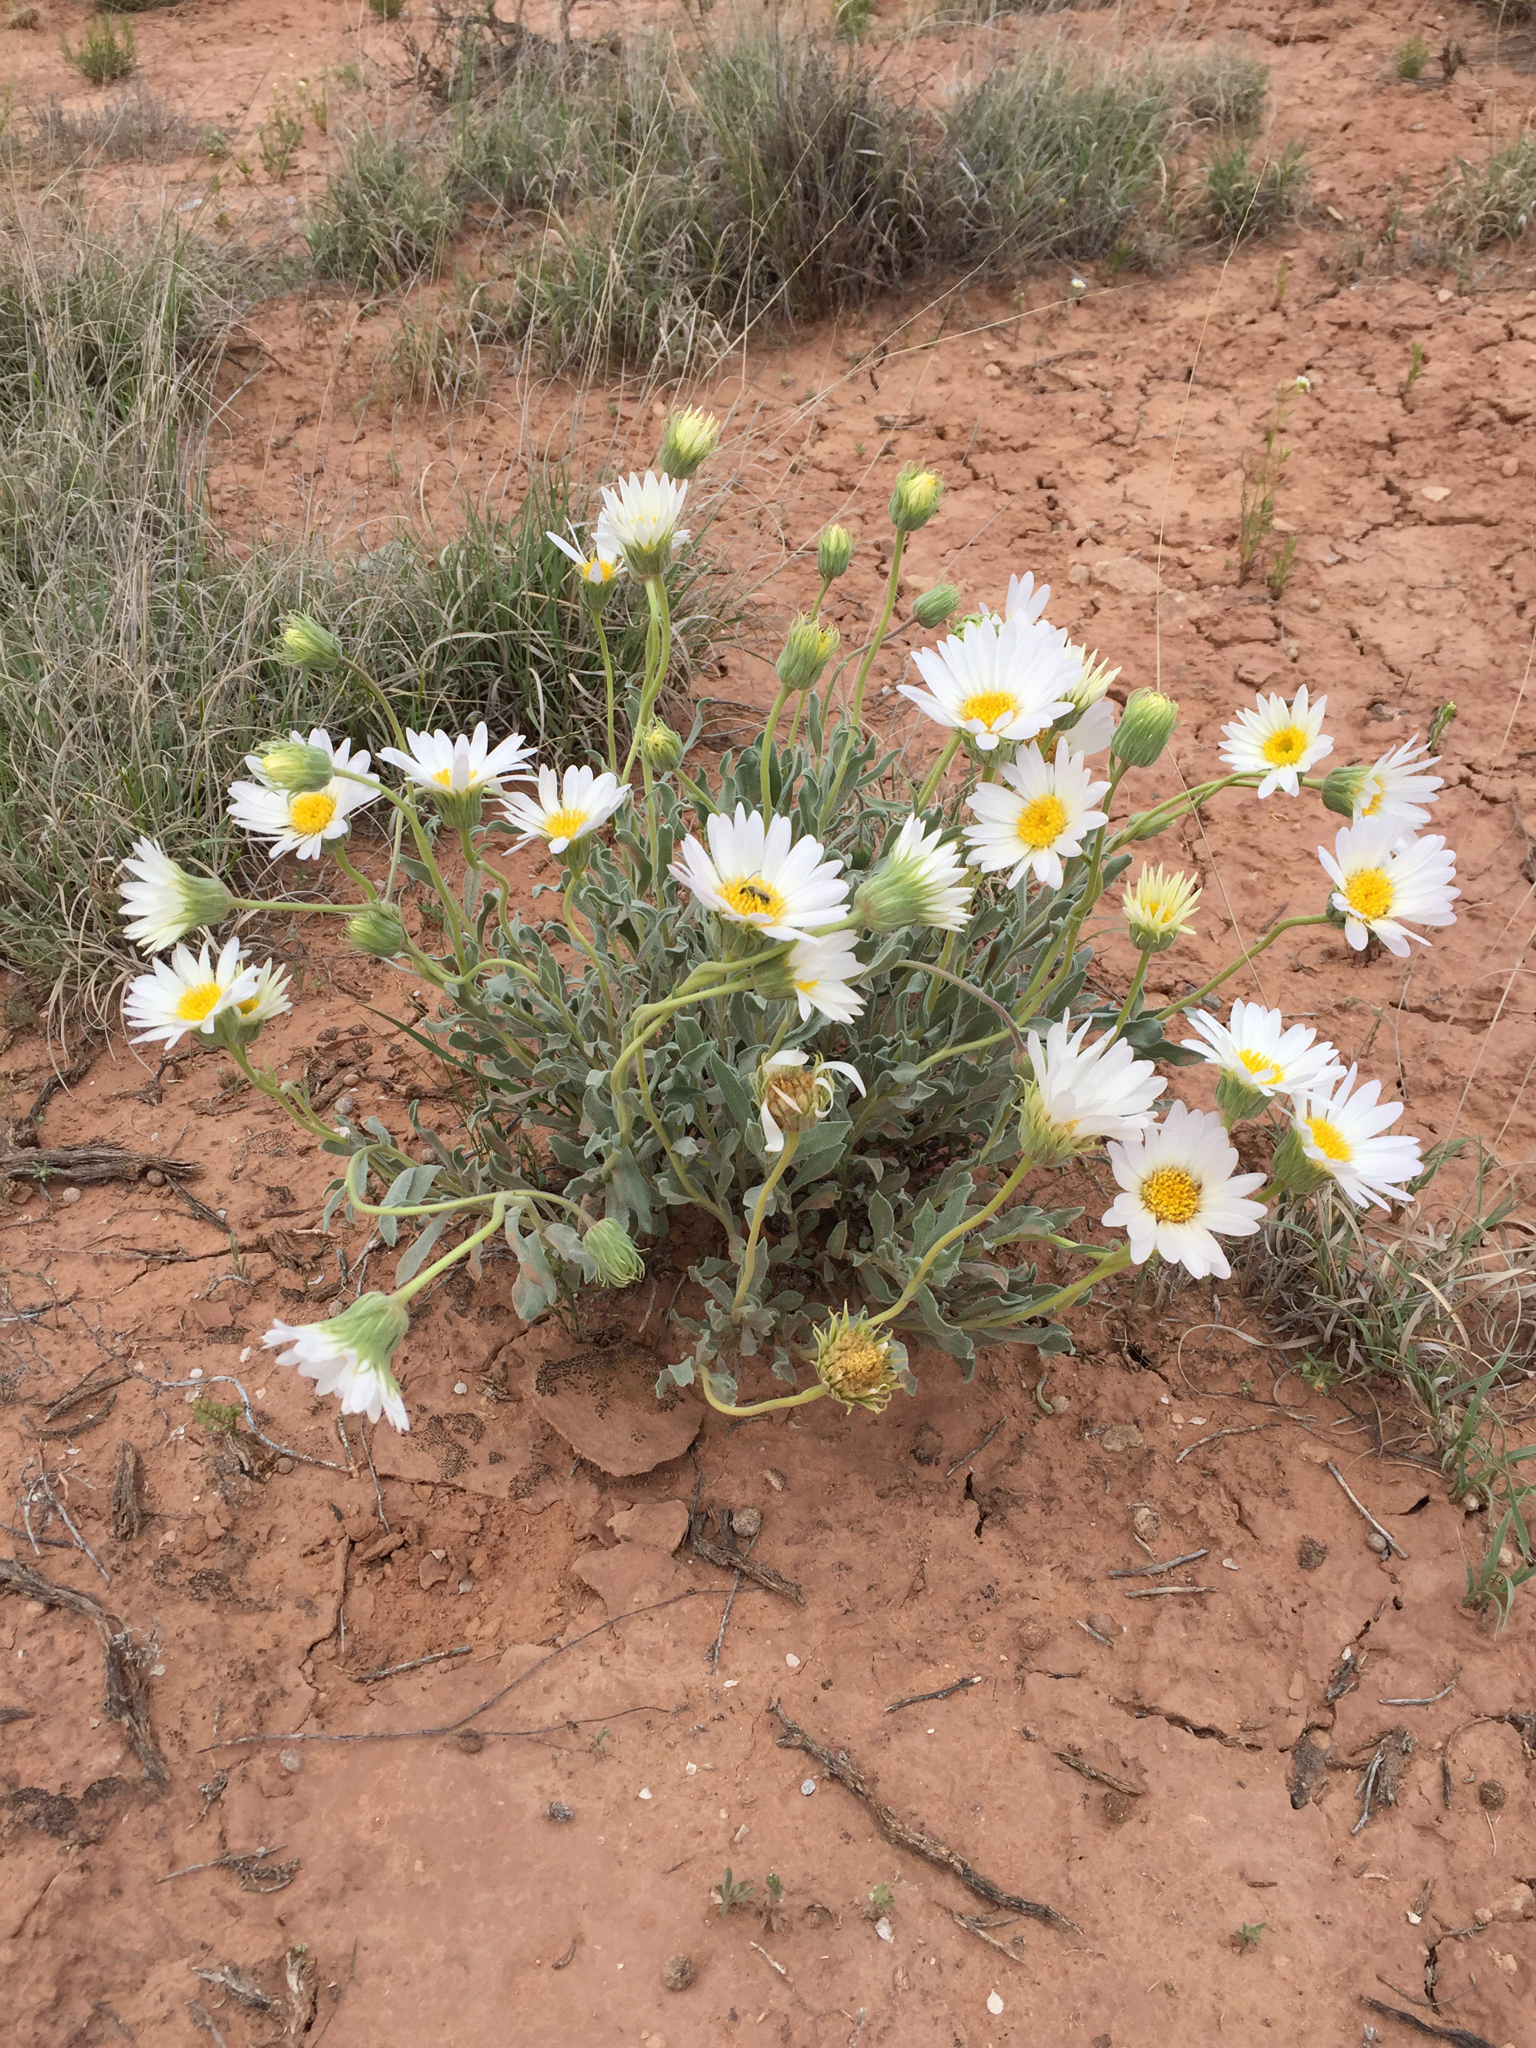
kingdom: Plantae
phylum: Tracheophyta
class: Magnoliopsida
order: Asterales
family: Asteraceae
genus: Xylorhiza
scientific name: Xylorhiza venusta
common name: Cisco woody-aster
